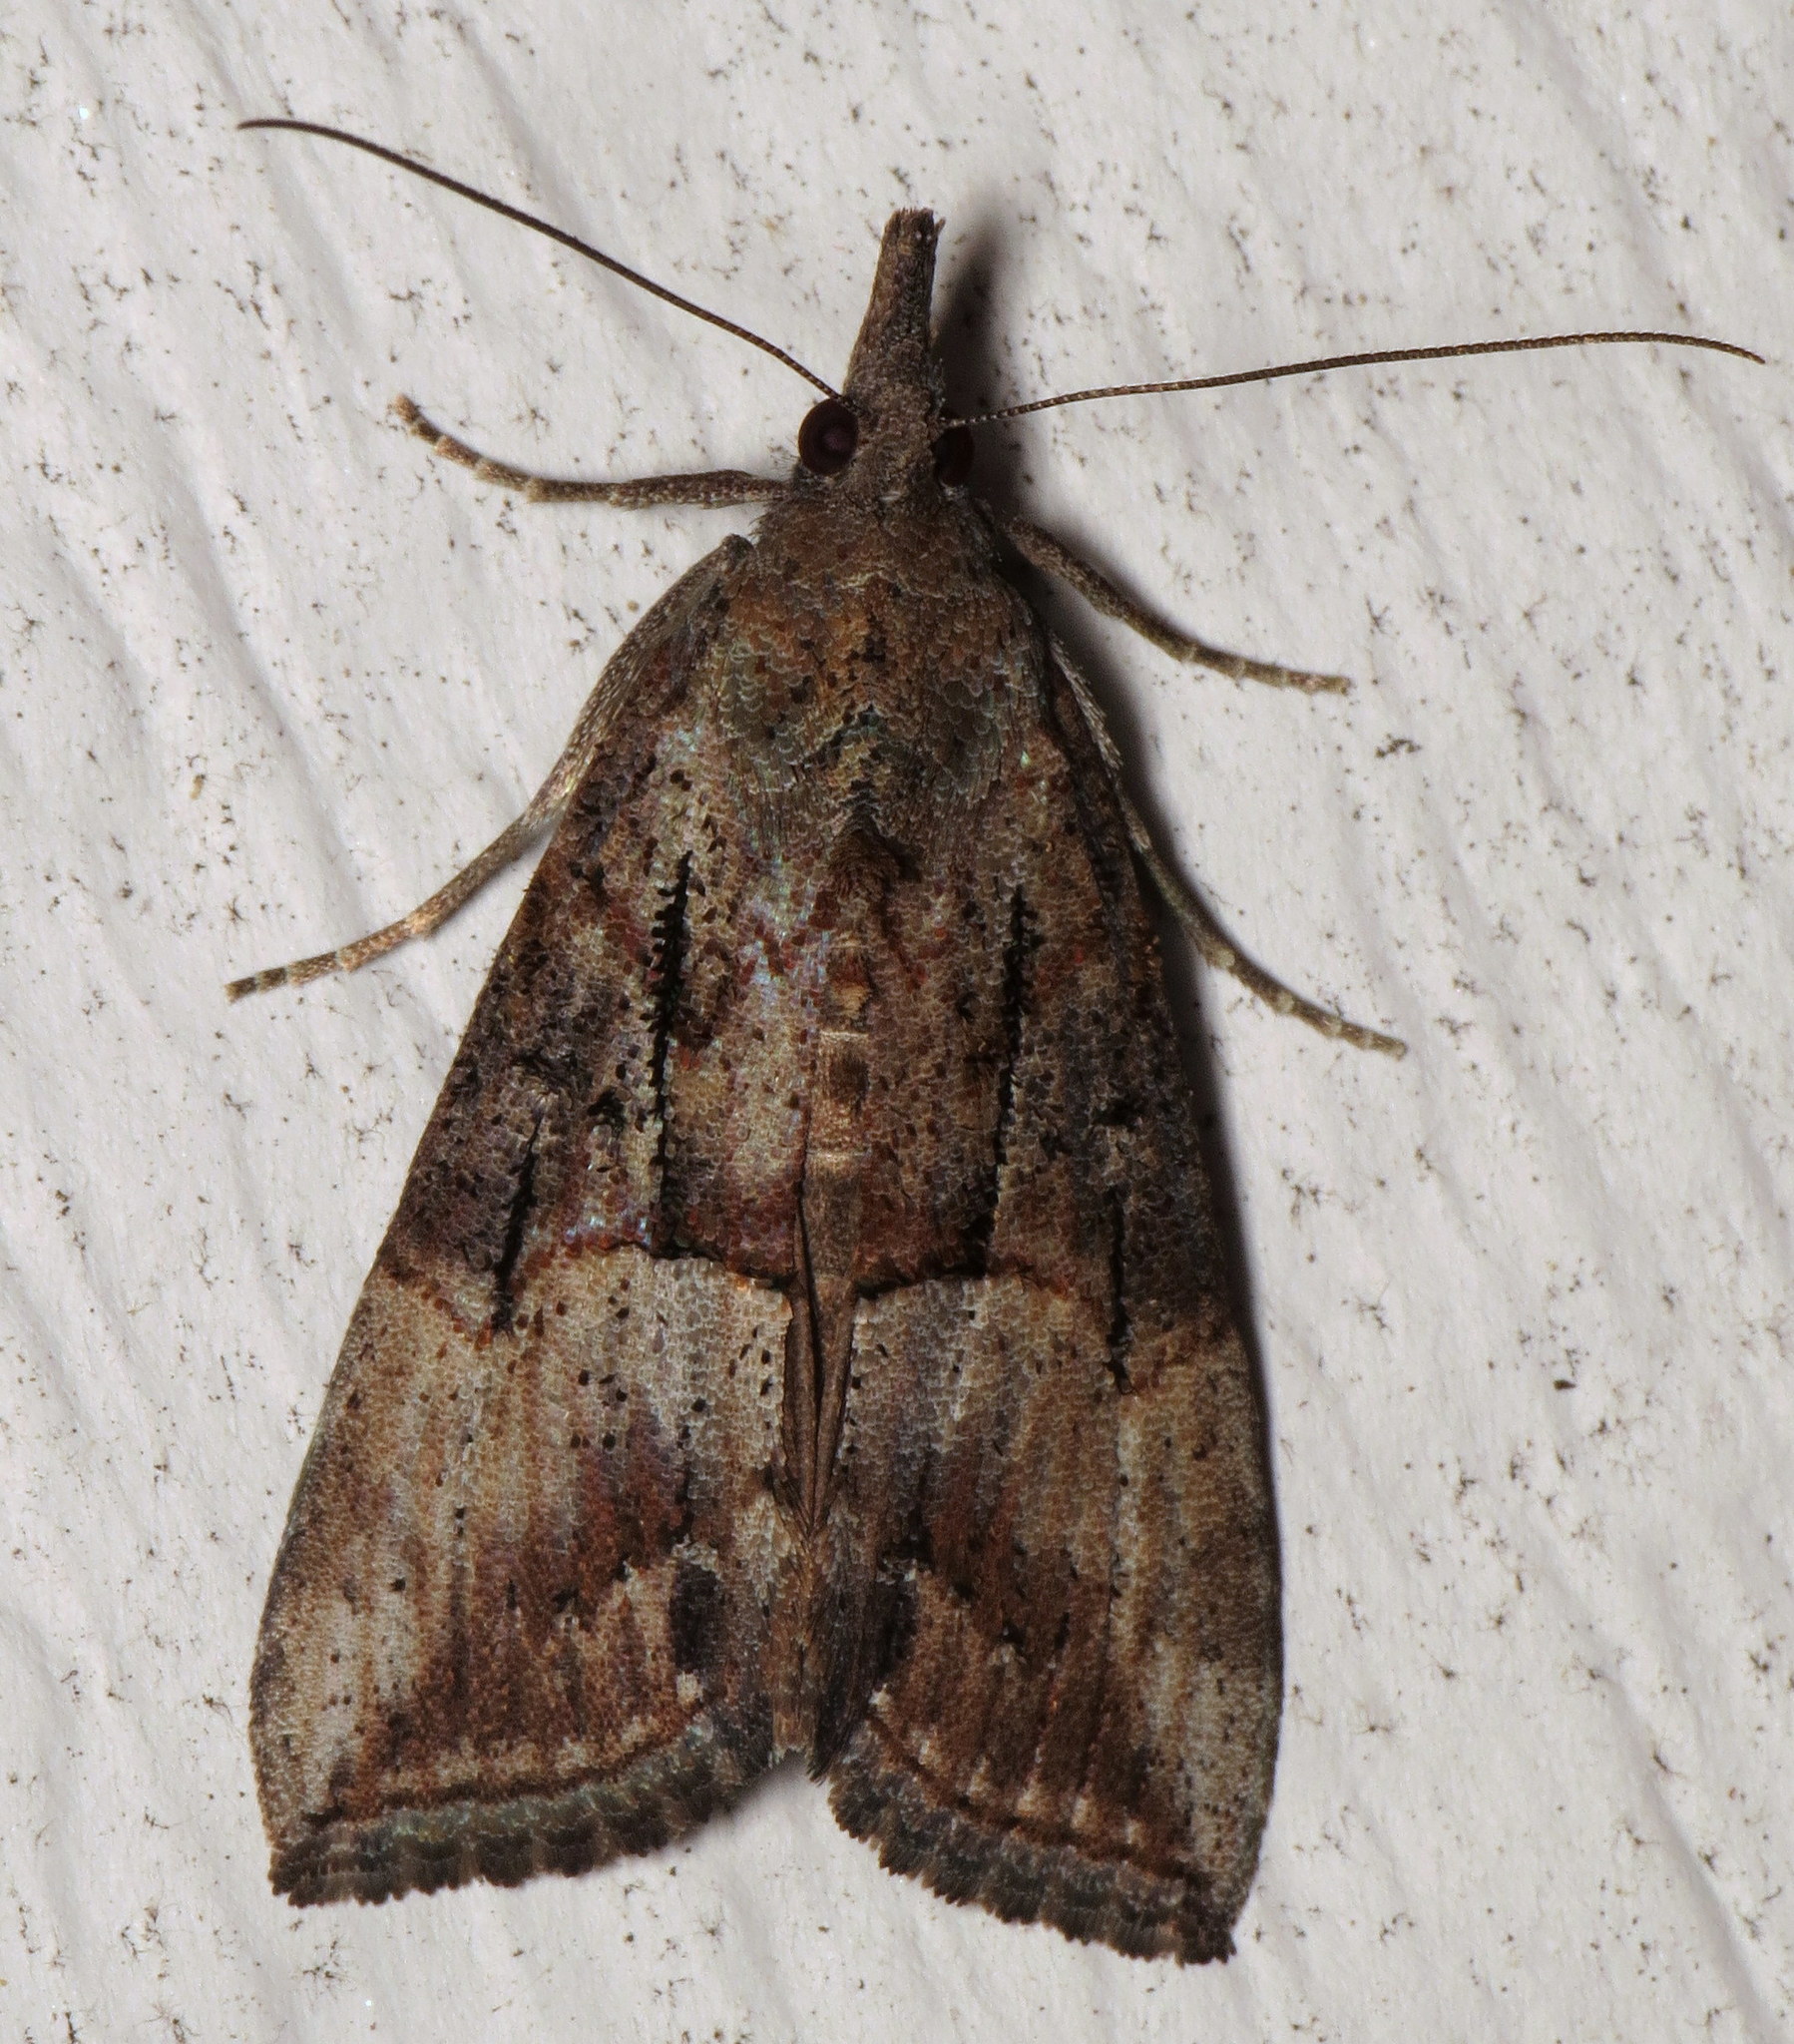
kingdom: Animalia
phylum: Arthropoda
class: Insecta
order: Lepidoptera
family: Erebidae
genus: Hypena
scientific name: Hypena scabra
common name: Green cloverworm
